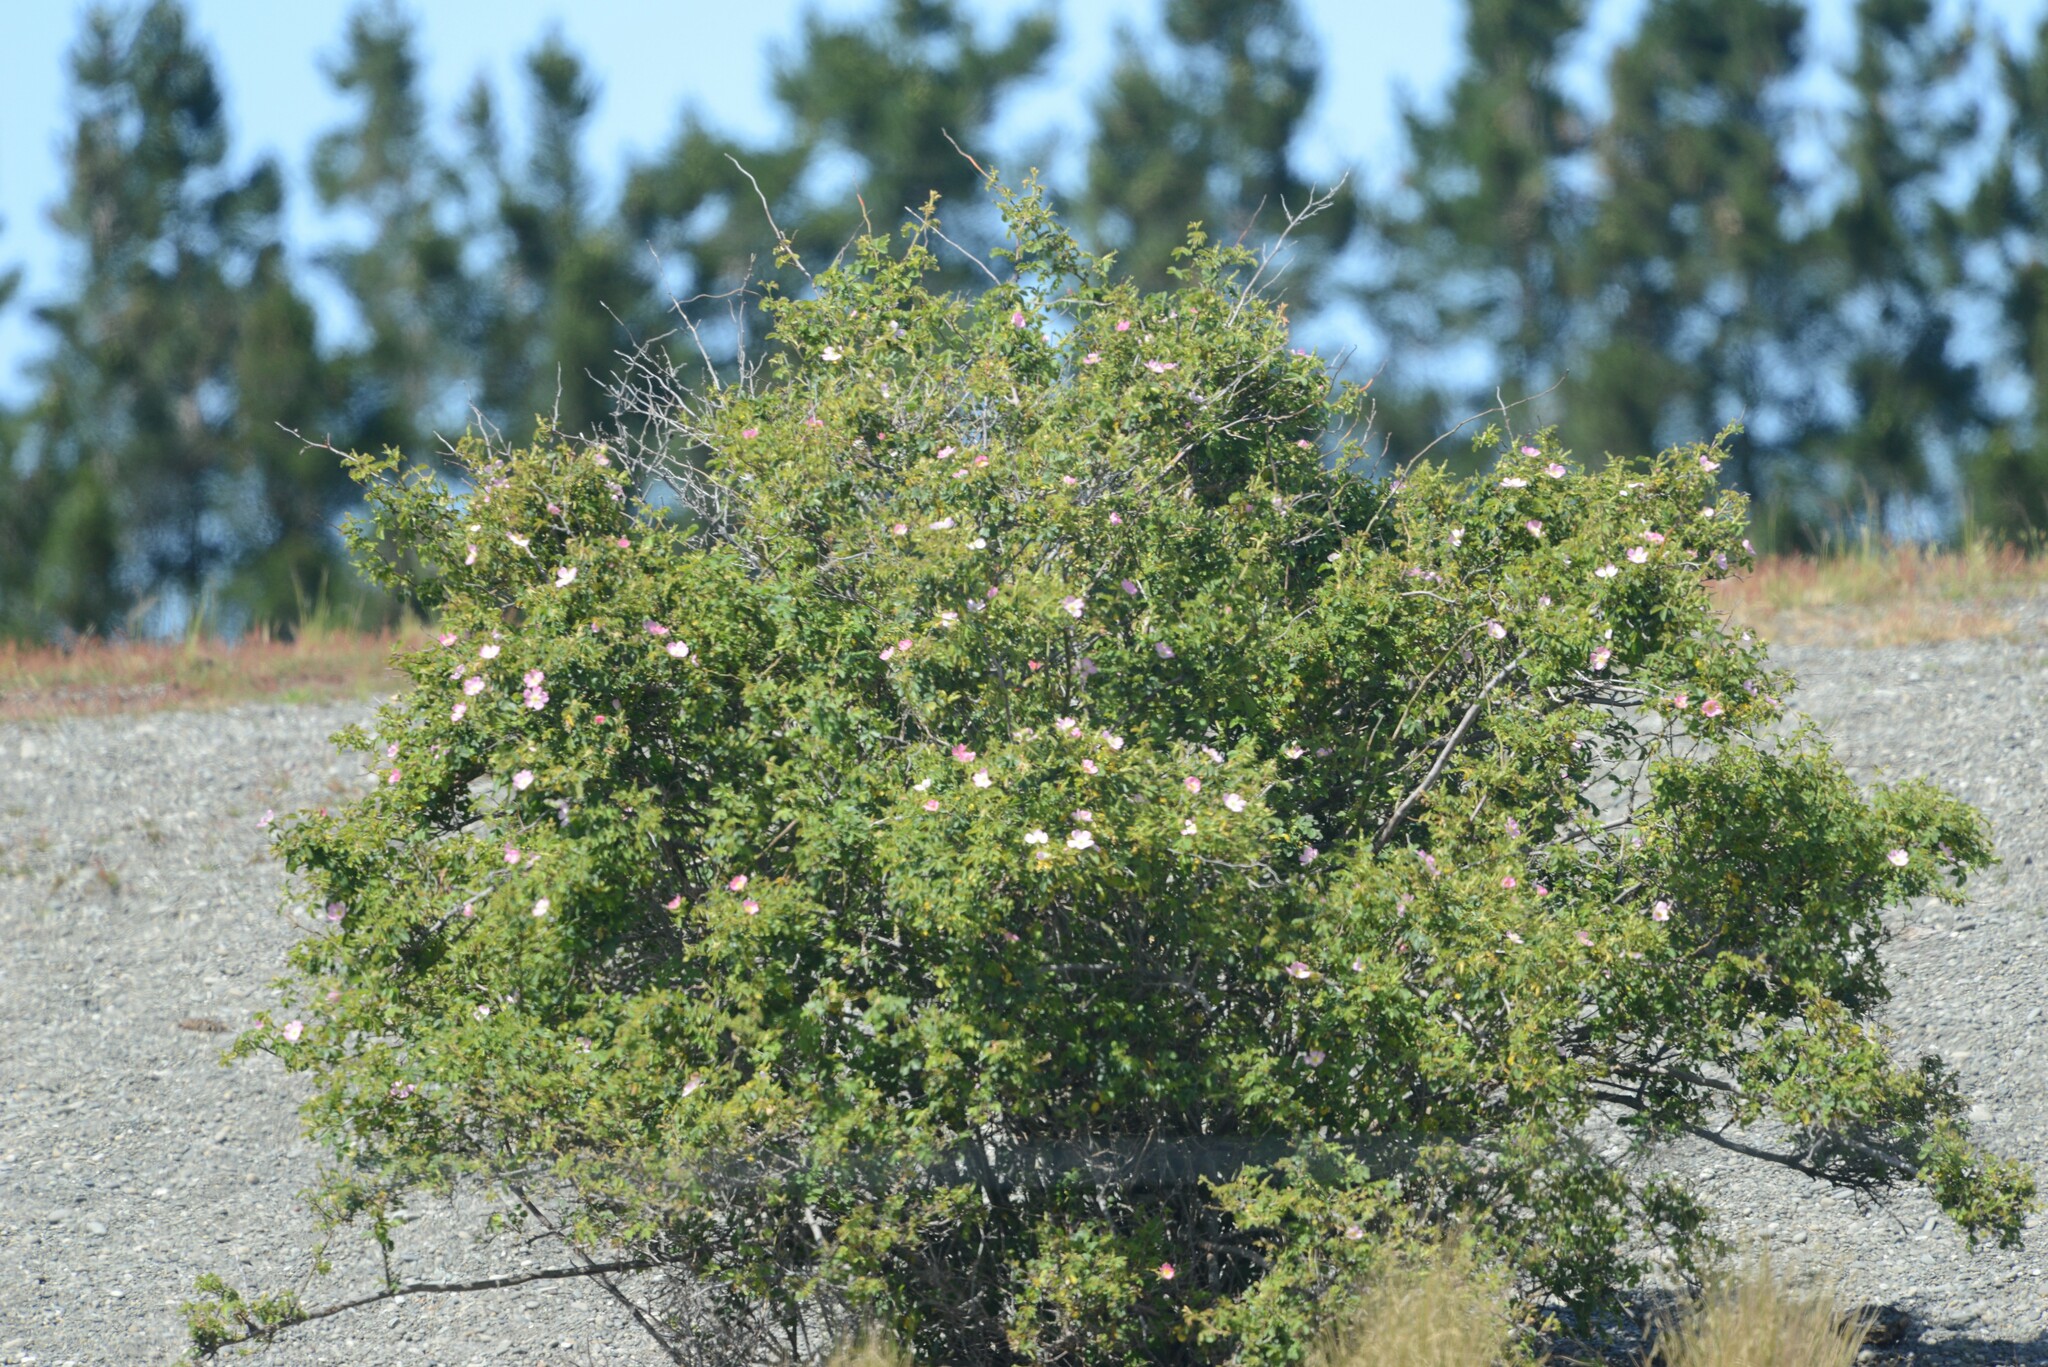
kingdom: Plantae
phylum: Tracheophyta
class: Magnoliopsida
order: Rosales
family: Rosaceae
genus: Rosa
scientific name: Rosa rubiginosa
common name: Sweet-briar
